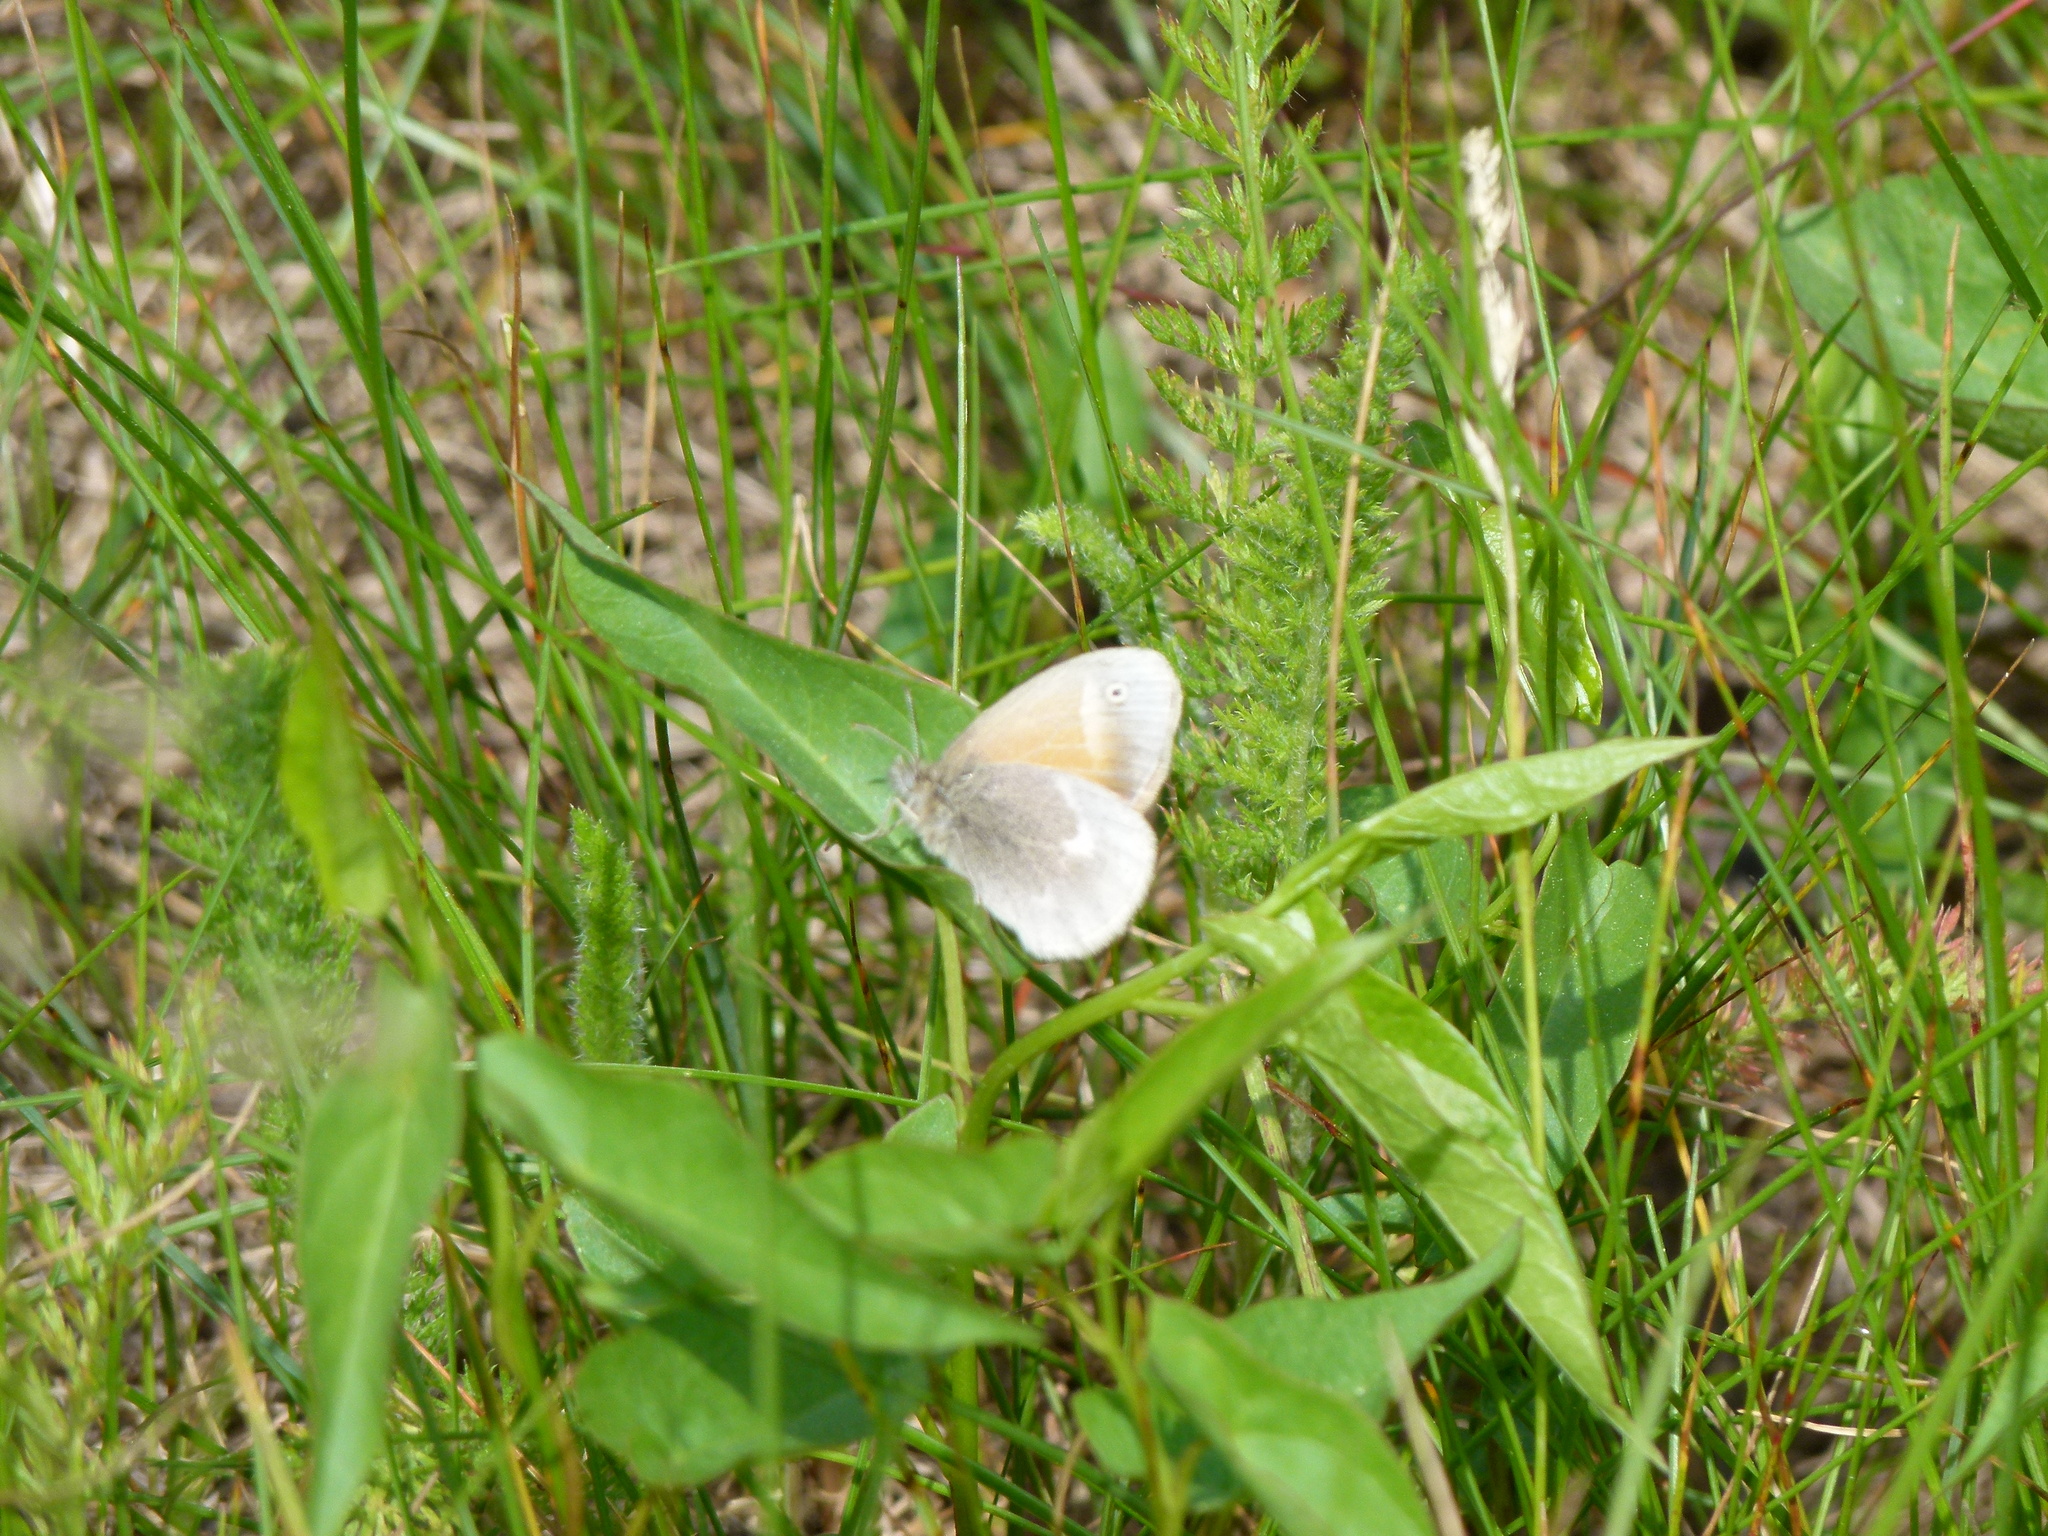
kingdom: Animalia
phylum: Arthropoda
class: Insecta
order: Lepidoptera
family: Nymphalidae
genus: Coenonympha
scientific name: Coenonympha california
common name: Common ringlet
